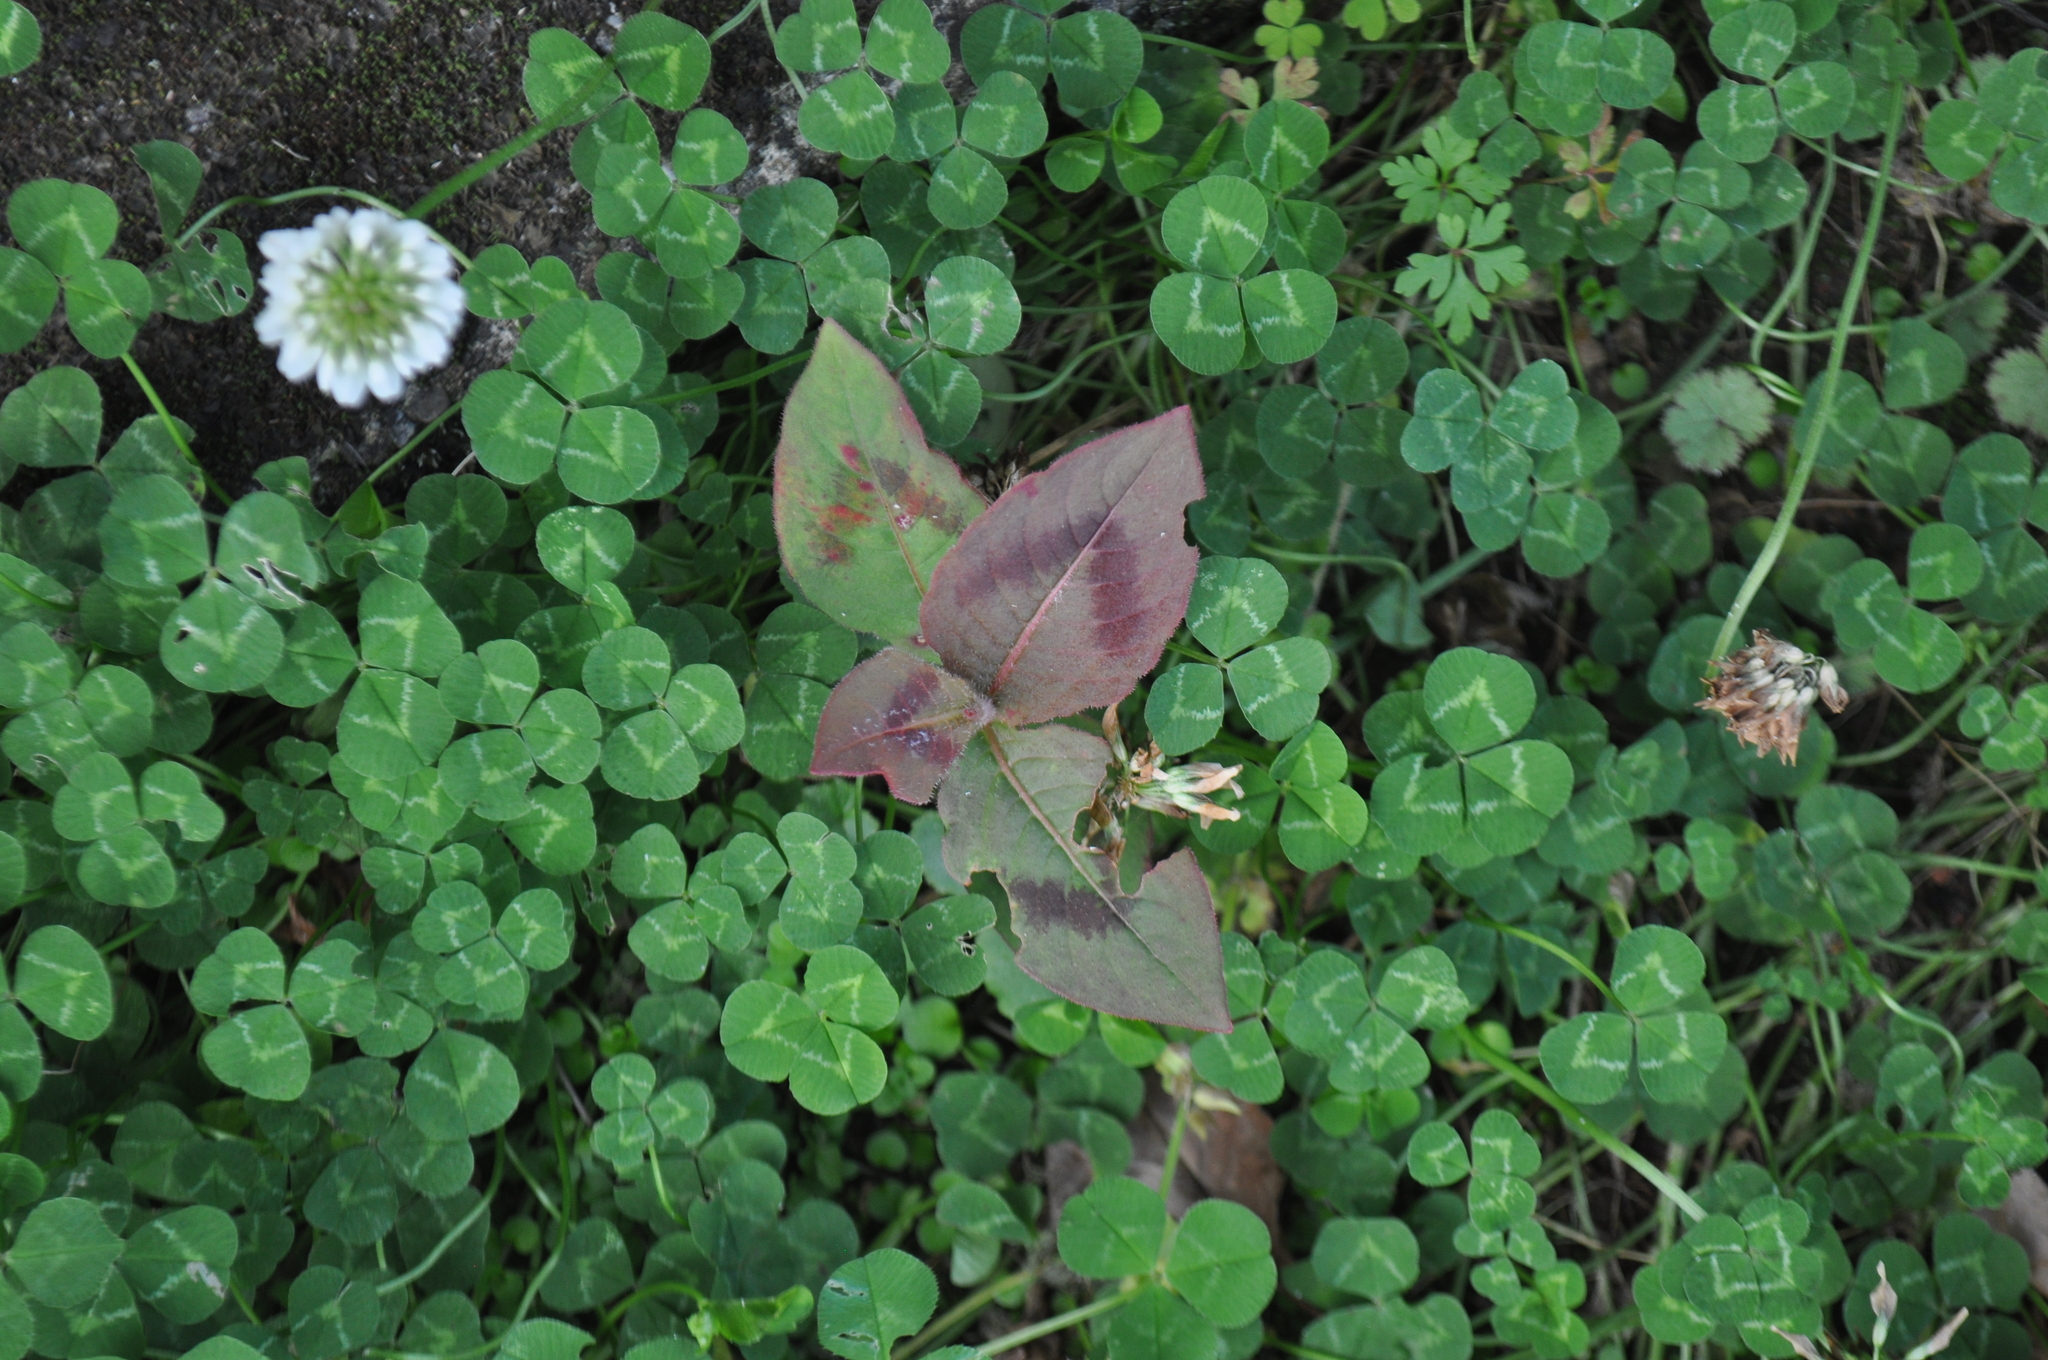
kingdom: Plantae
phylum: Tracheophyta
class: Magnoliopsida
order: Caryophyllales
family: Polygonaceae
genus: Persicaria
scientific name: Persicaria capitata
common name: Pinkhead smartweed
